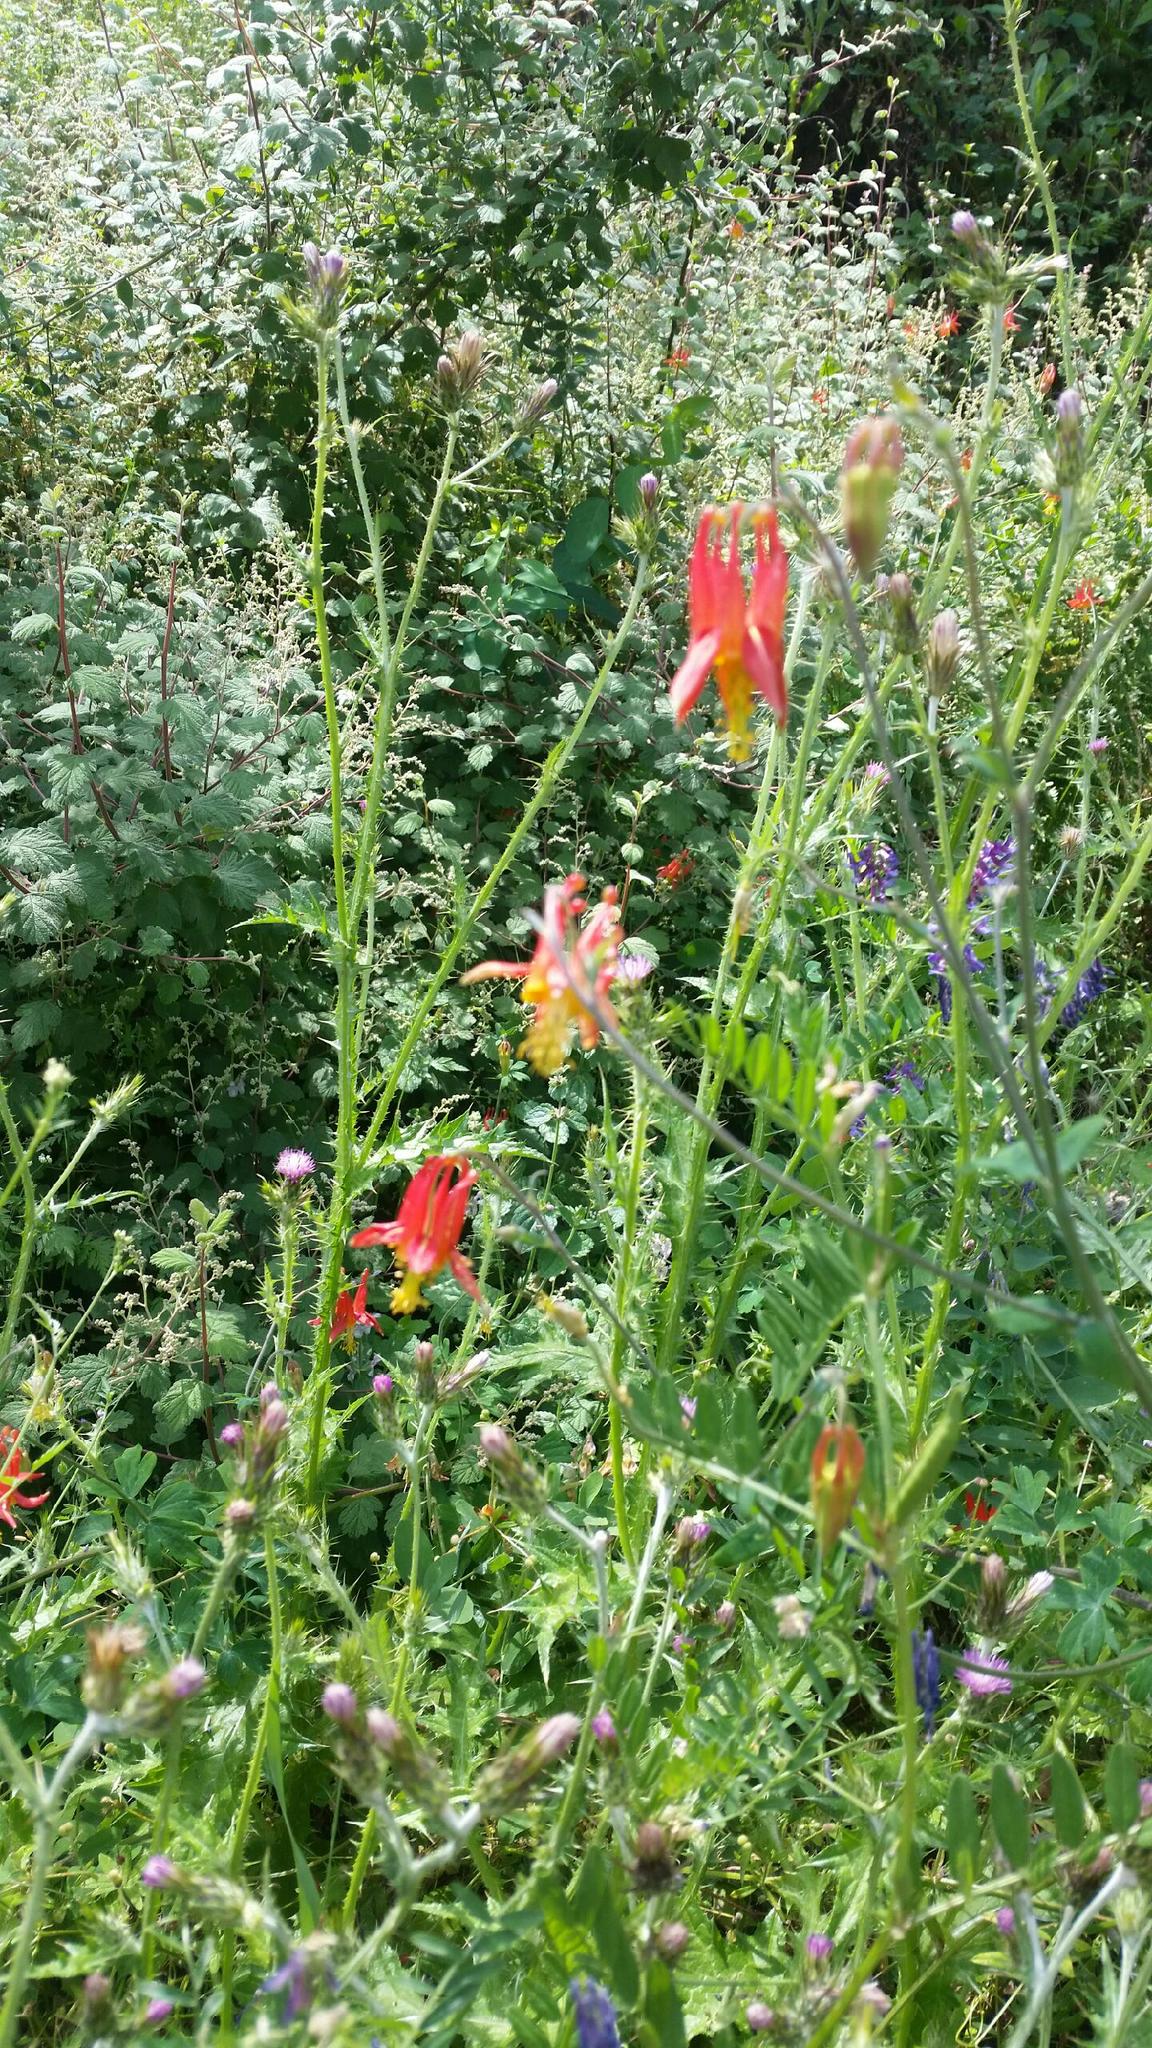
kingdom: Plantae
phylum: Tracheophyta
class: Magnoliopsida
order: Ranunculales
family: Ranunculaceae
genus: Aquilegia
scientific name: Aquilegia formosa
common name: Sitka columbine
